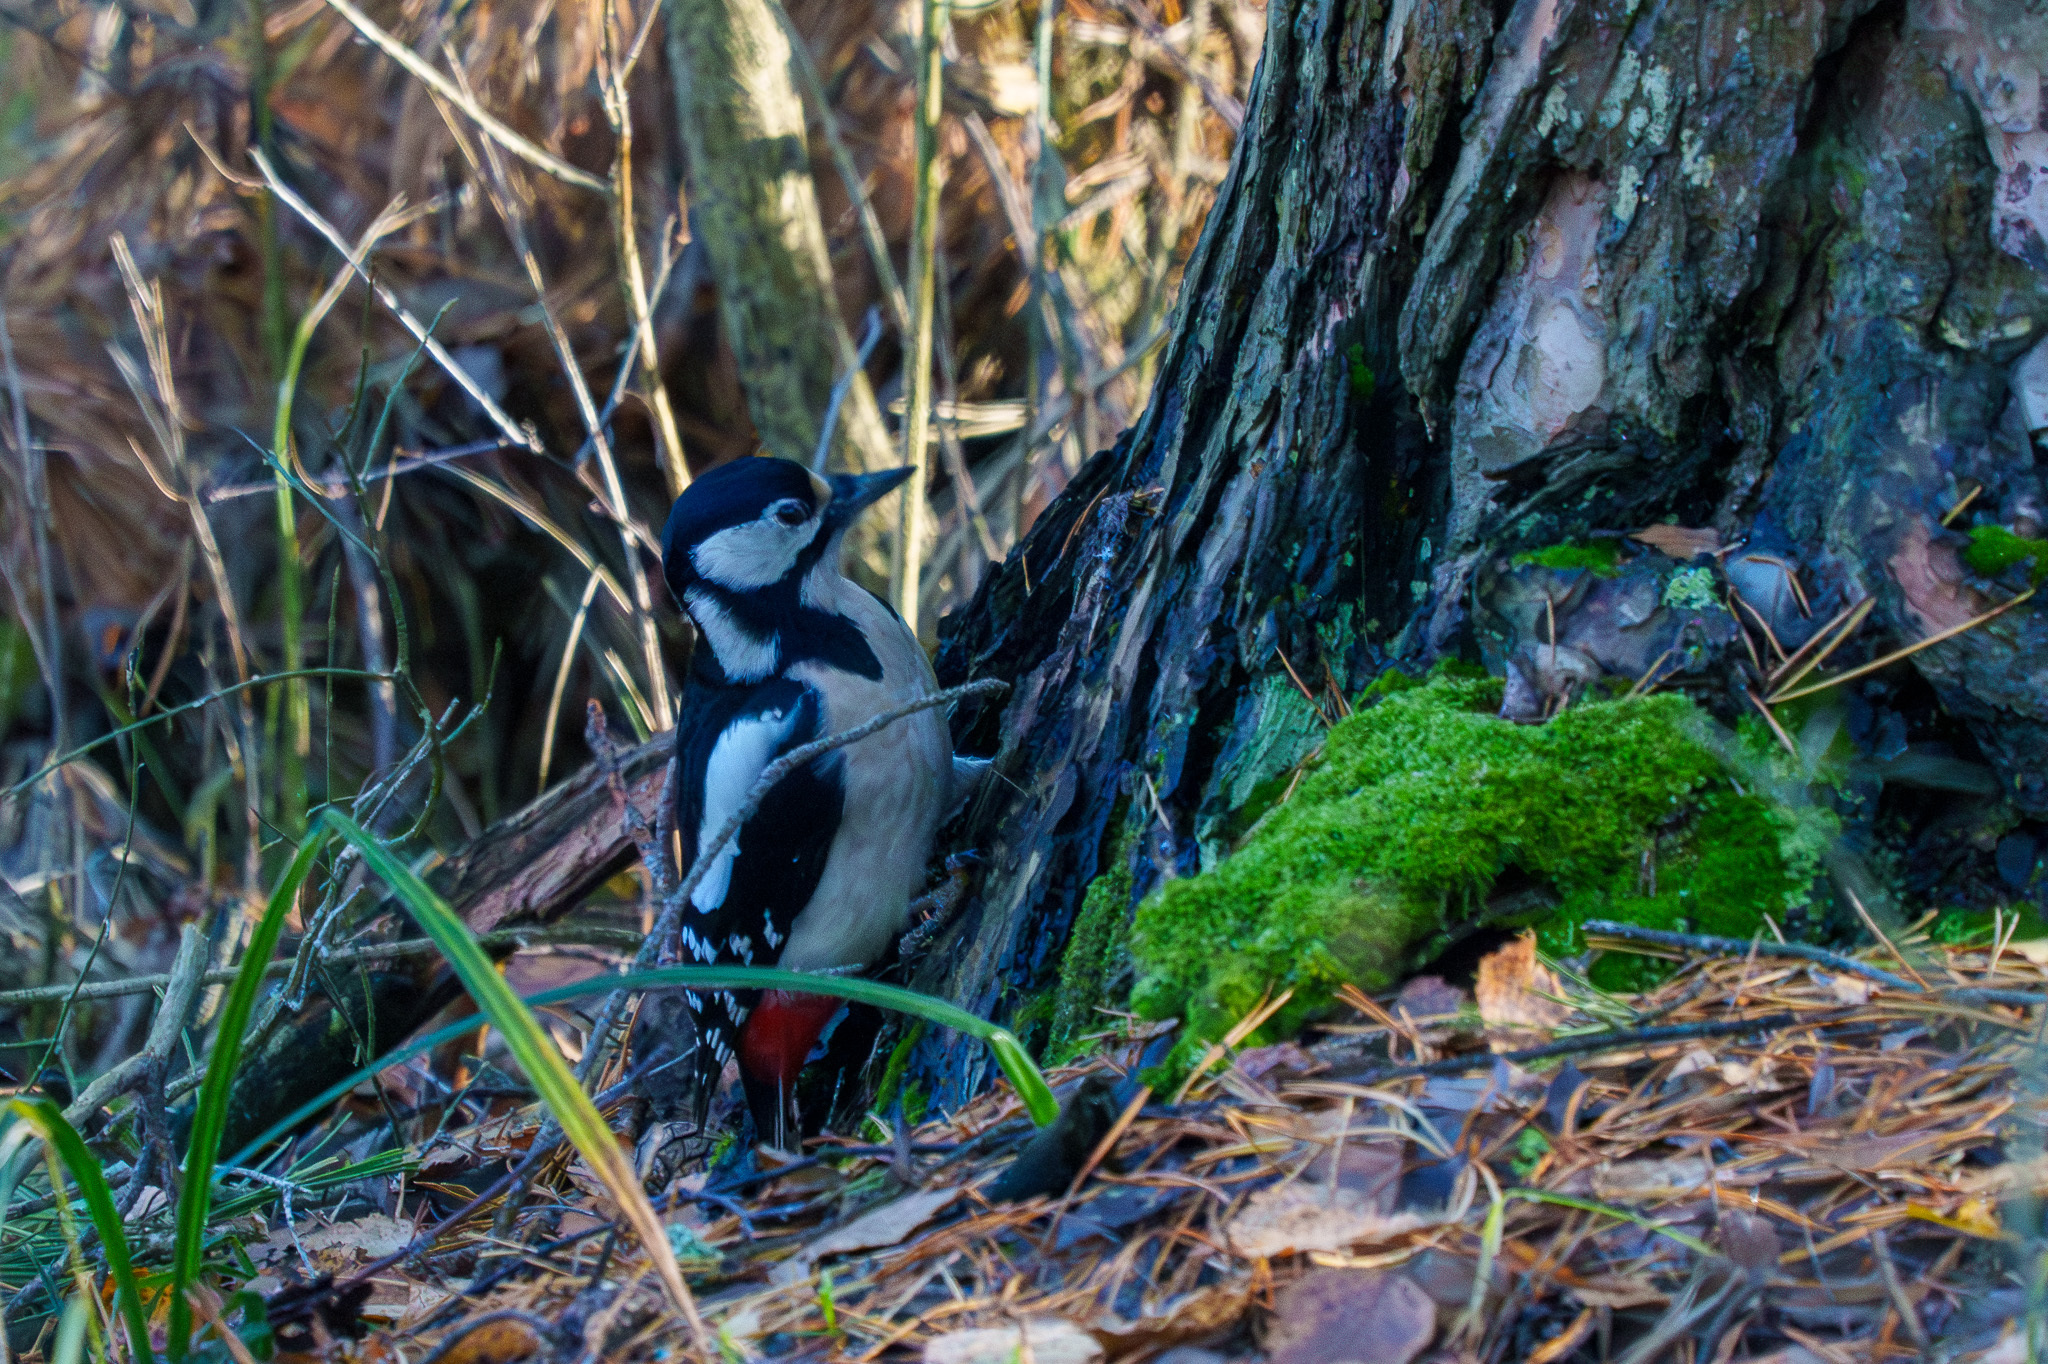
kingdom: Animalia
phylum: Chordata
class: Aves
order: Piciformes
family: Picidae
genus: Dendrocopos
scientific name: Dendrocopos major
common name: Great spotted woodpecker
